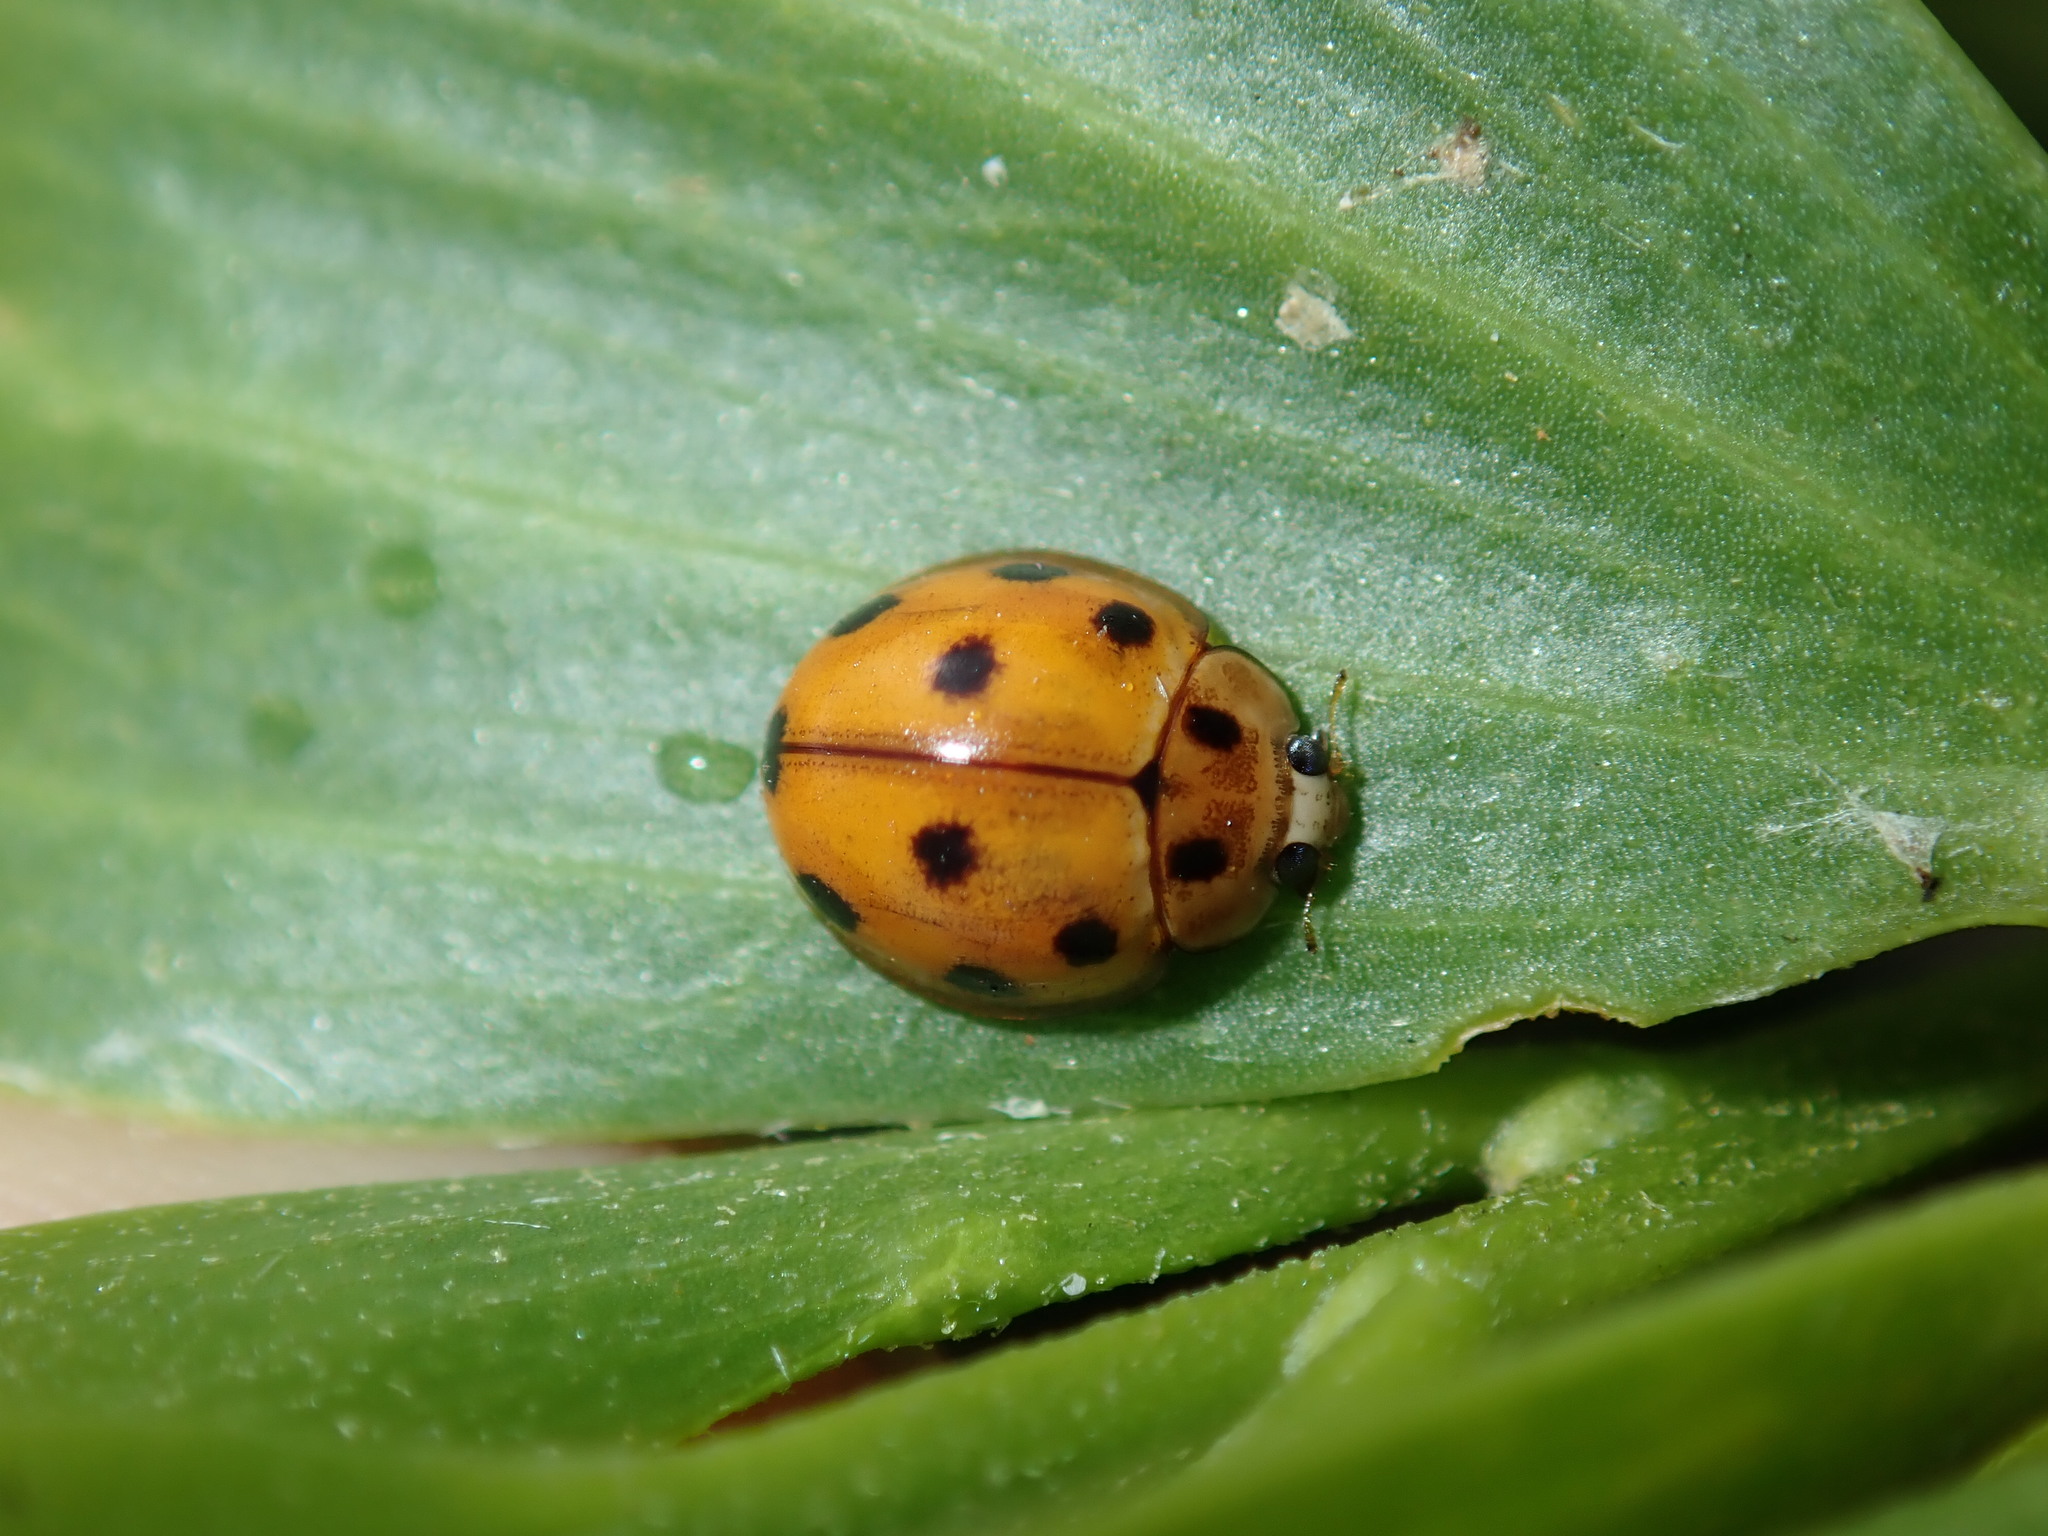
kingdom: Animalia
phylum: Arthropoda
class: Insecta
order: Coleoptera
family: Coccinellidae
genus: Coelophora
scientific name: Coelophora inaequalis
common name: Common australian lady beetle
